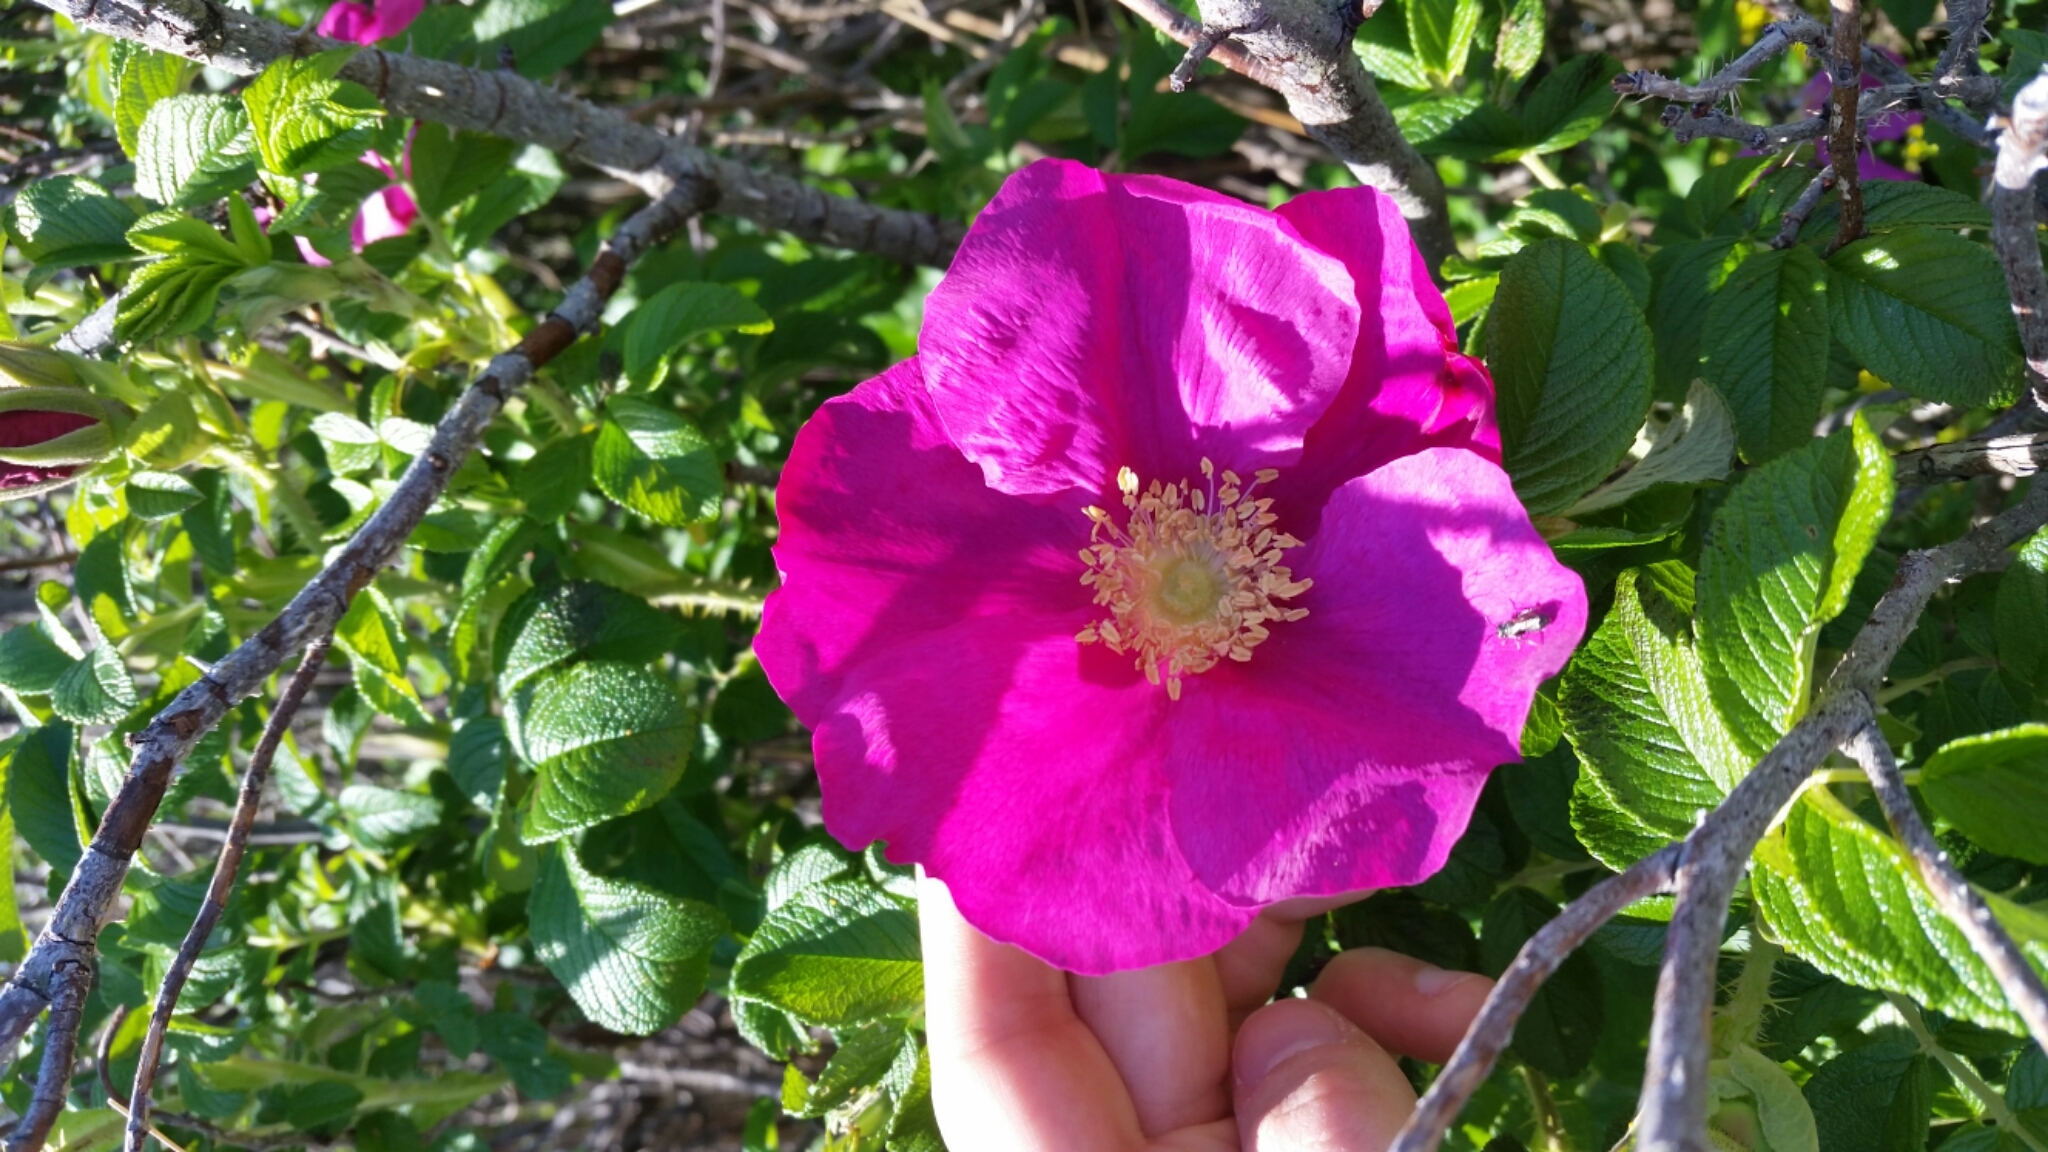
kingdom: Plantae
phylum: Tracheophyta
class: Magnoliopsida
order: Rosales
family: Rosaceae
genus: Rosa
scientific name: Rosa rugosa
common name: Japanese rose
